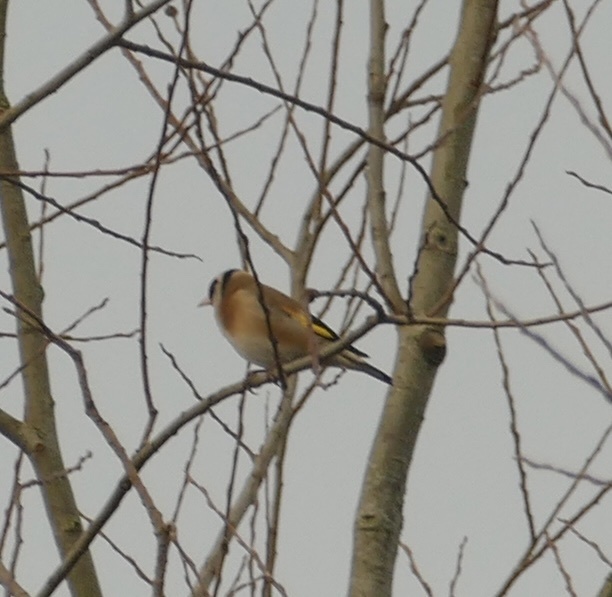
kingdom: Animalia
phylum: Chordata
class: Aves
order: Passeriformes
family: Fringillidae
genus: Carduelis
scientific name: Carduelis carduelis
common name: European goldfinch
